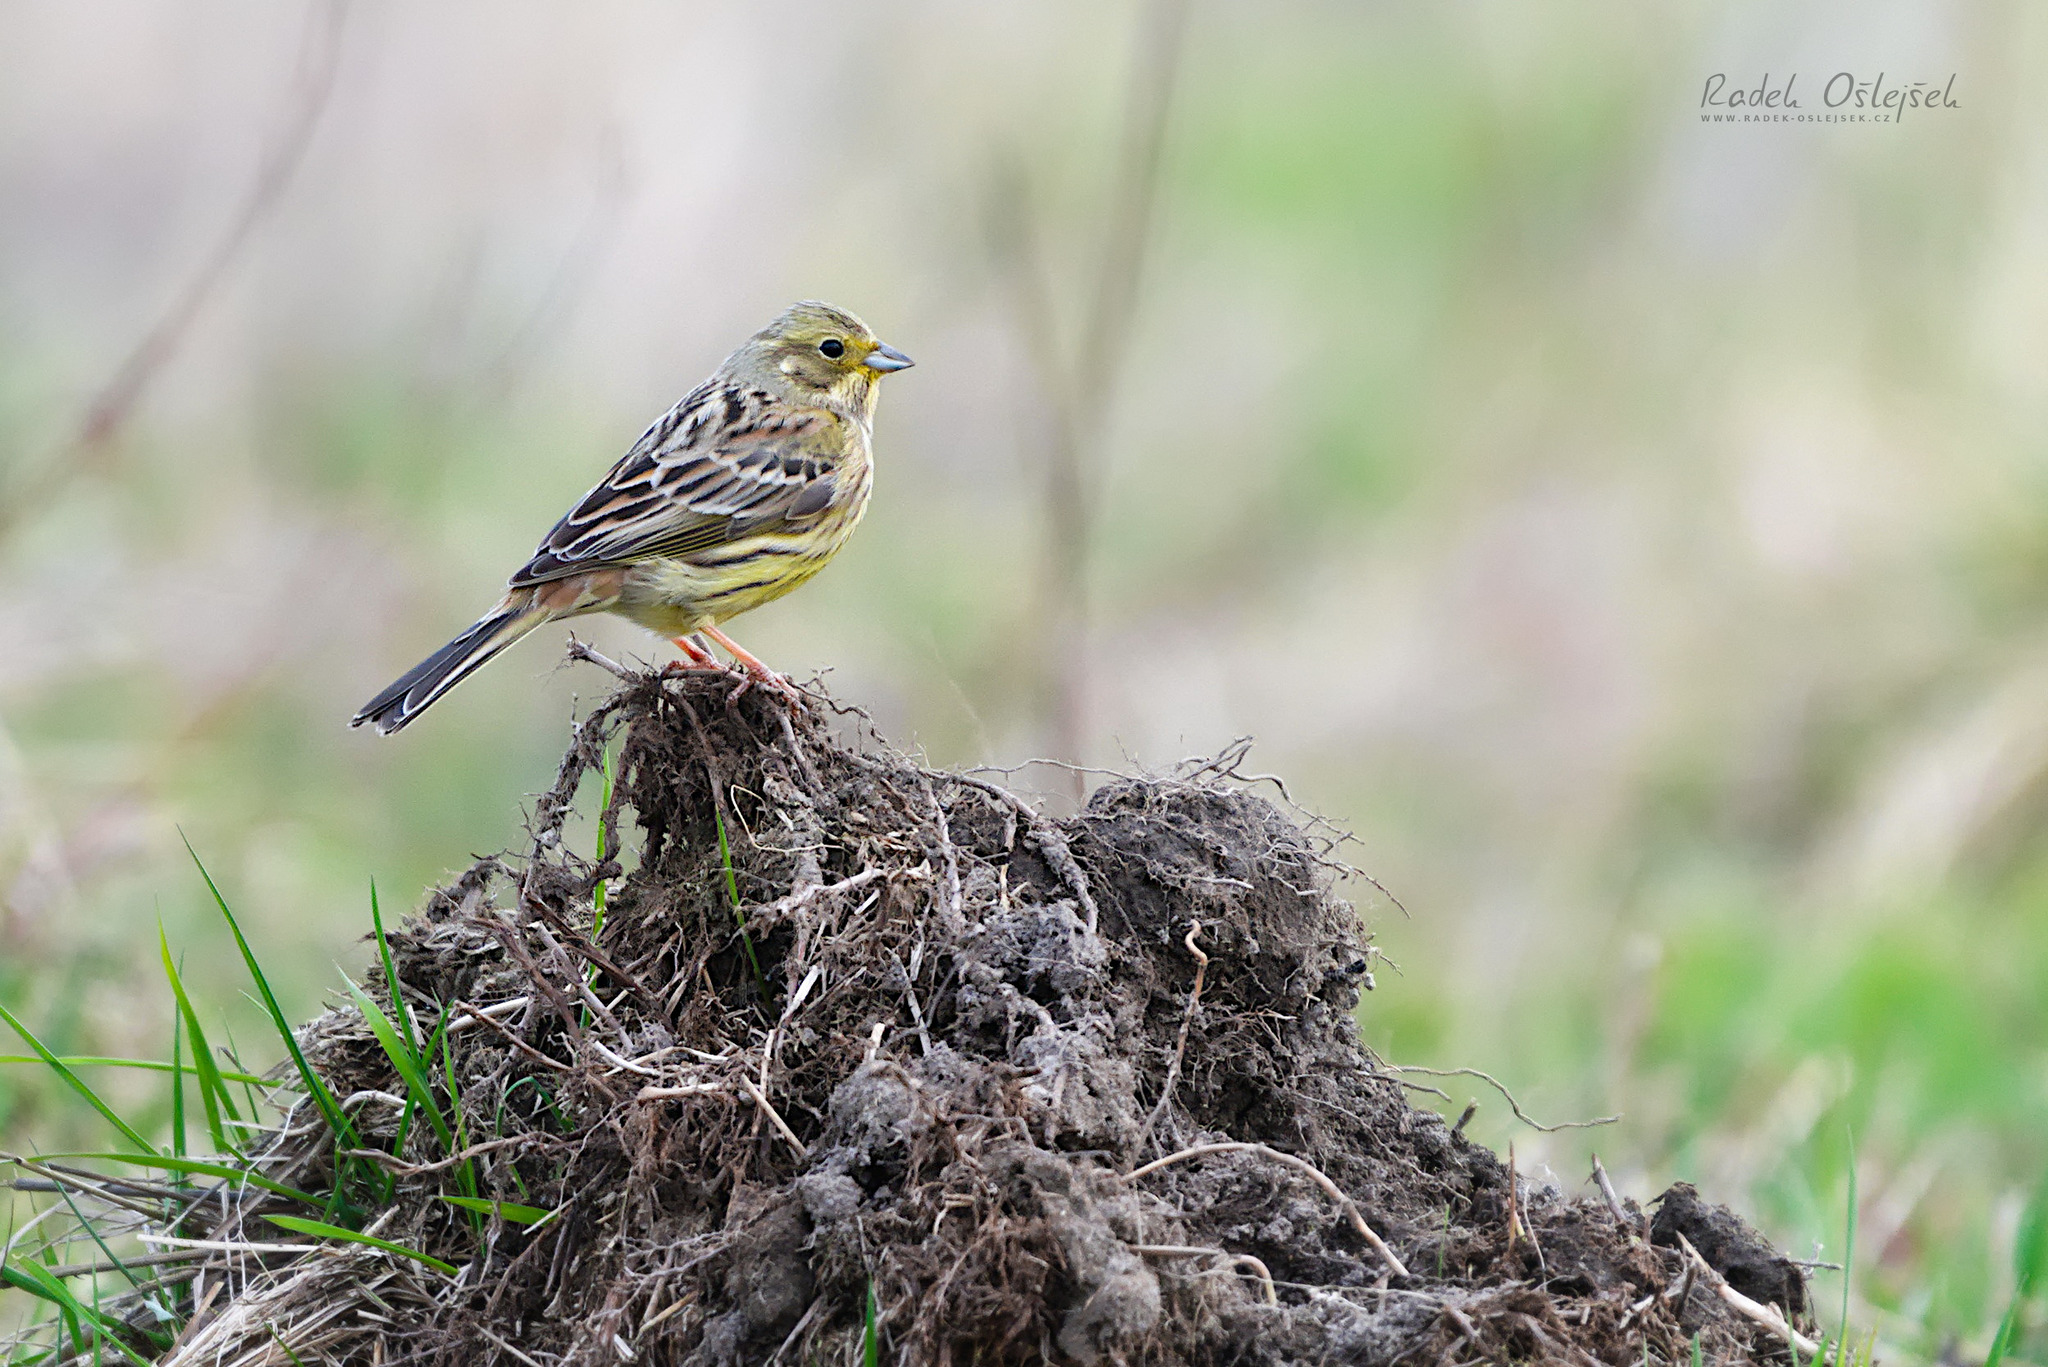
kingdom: Animalia
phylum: Chordata
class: Aves
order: Passeriformes
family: Emberizidae
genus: Emberiza
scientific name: Emberiza citrinella
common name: Yellowhammer
